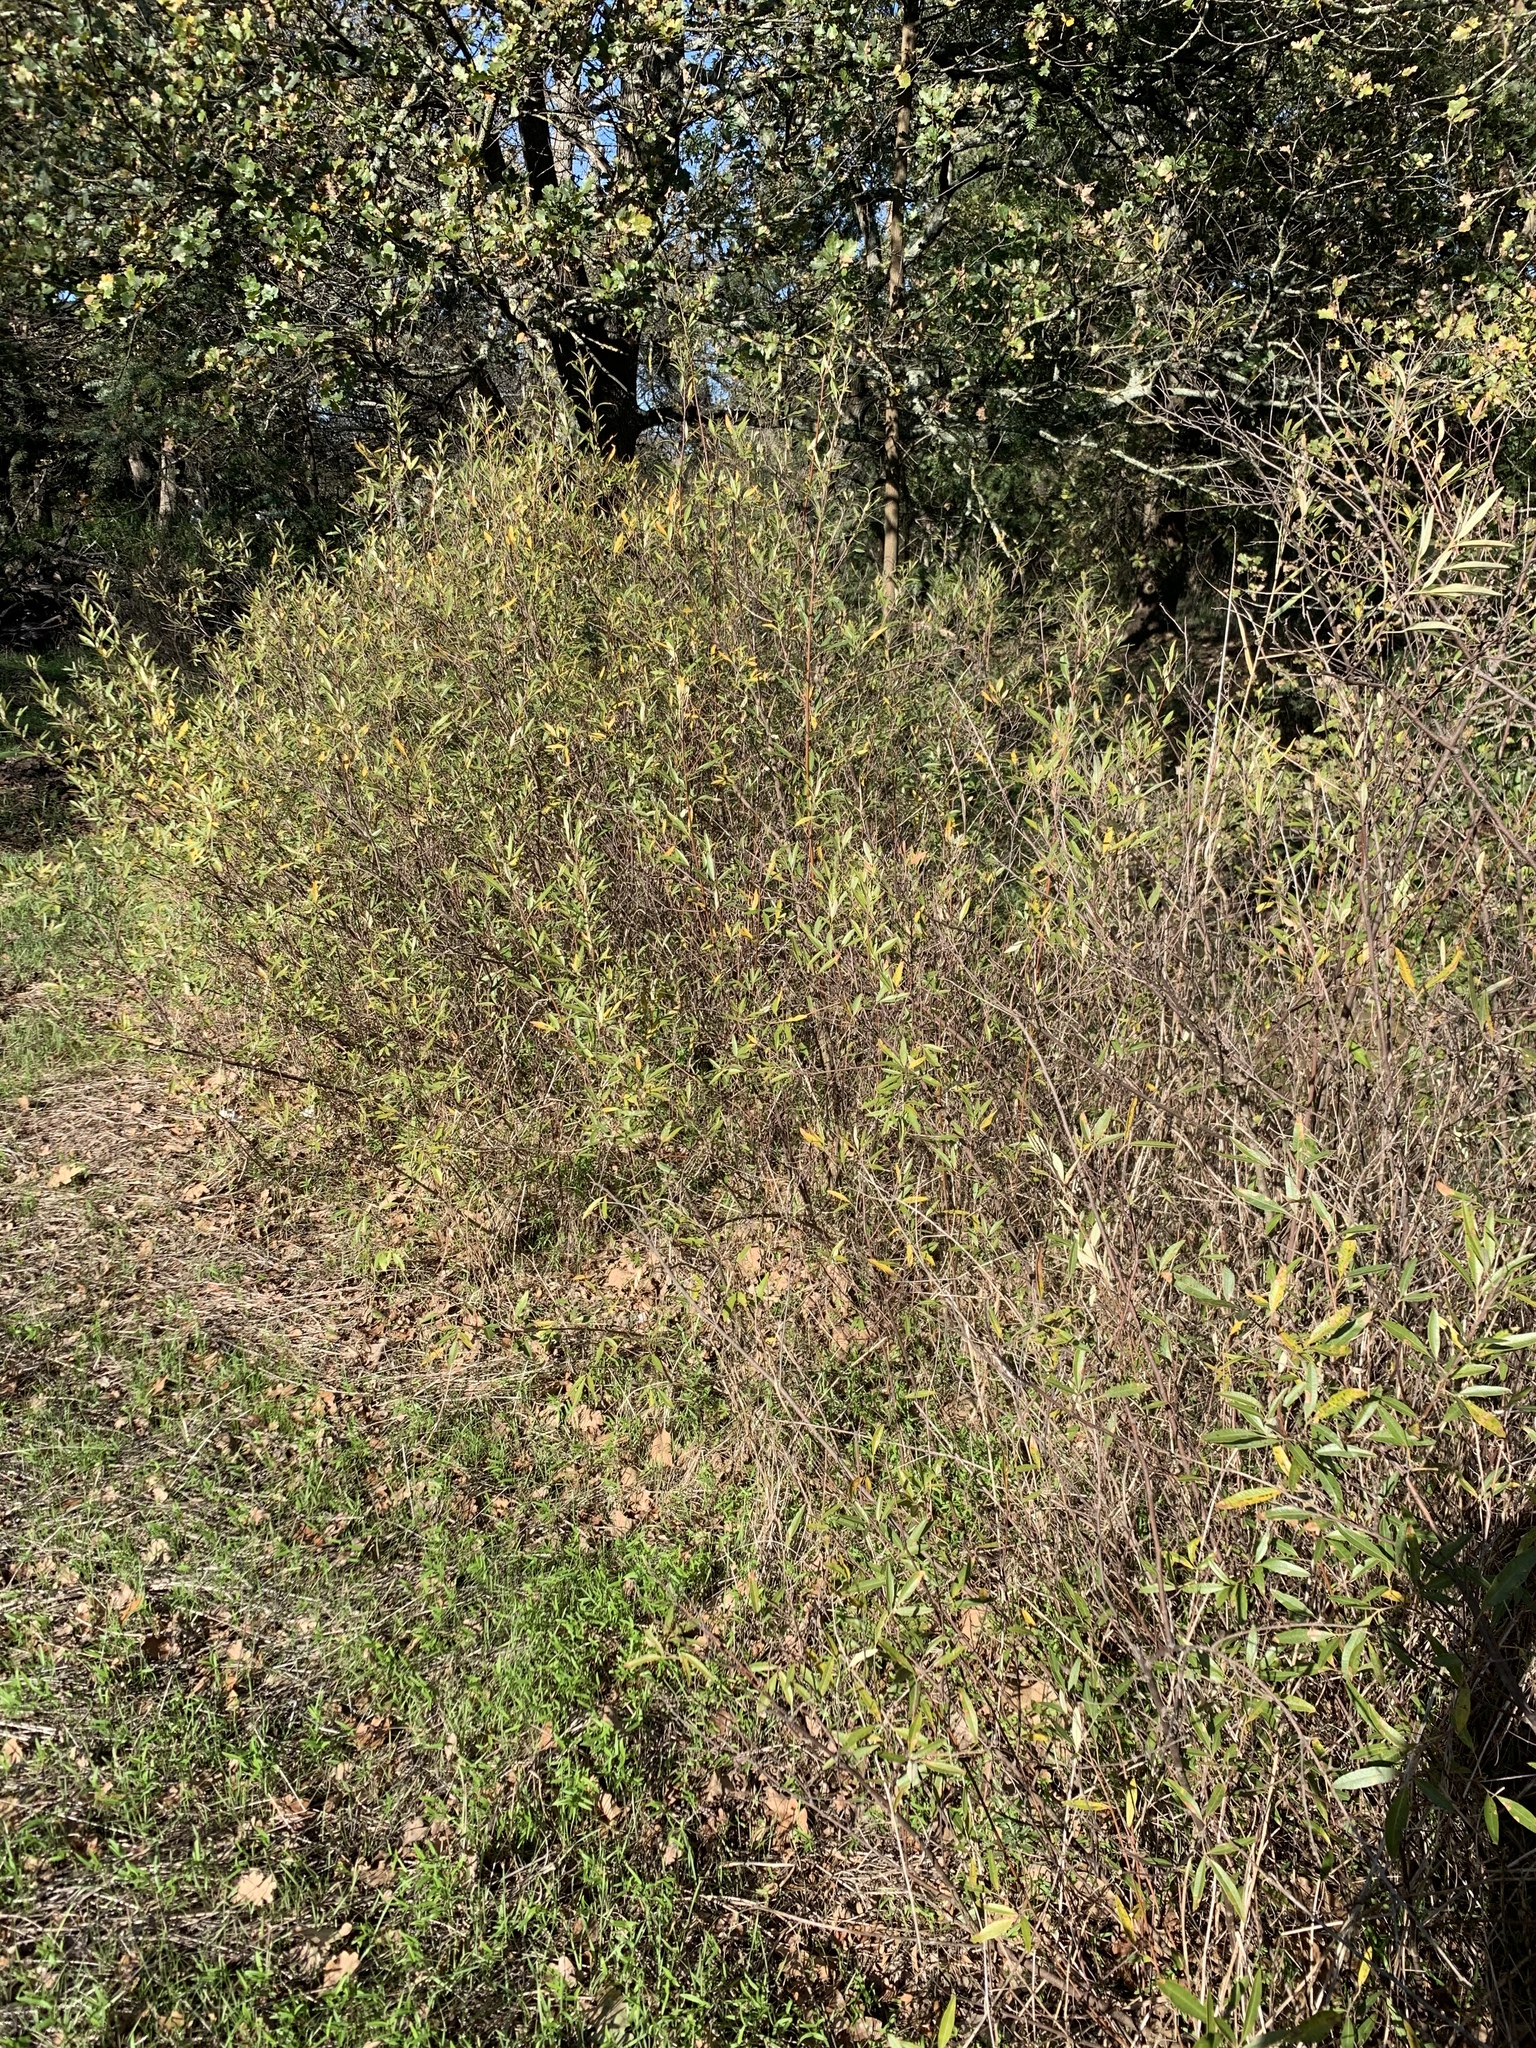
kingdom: Plantae
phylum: Tracheophyta
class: Magnoliopsida
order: Sapindales
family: Anacardiaceae
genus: Searsia
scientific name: Searsia angustifolia
